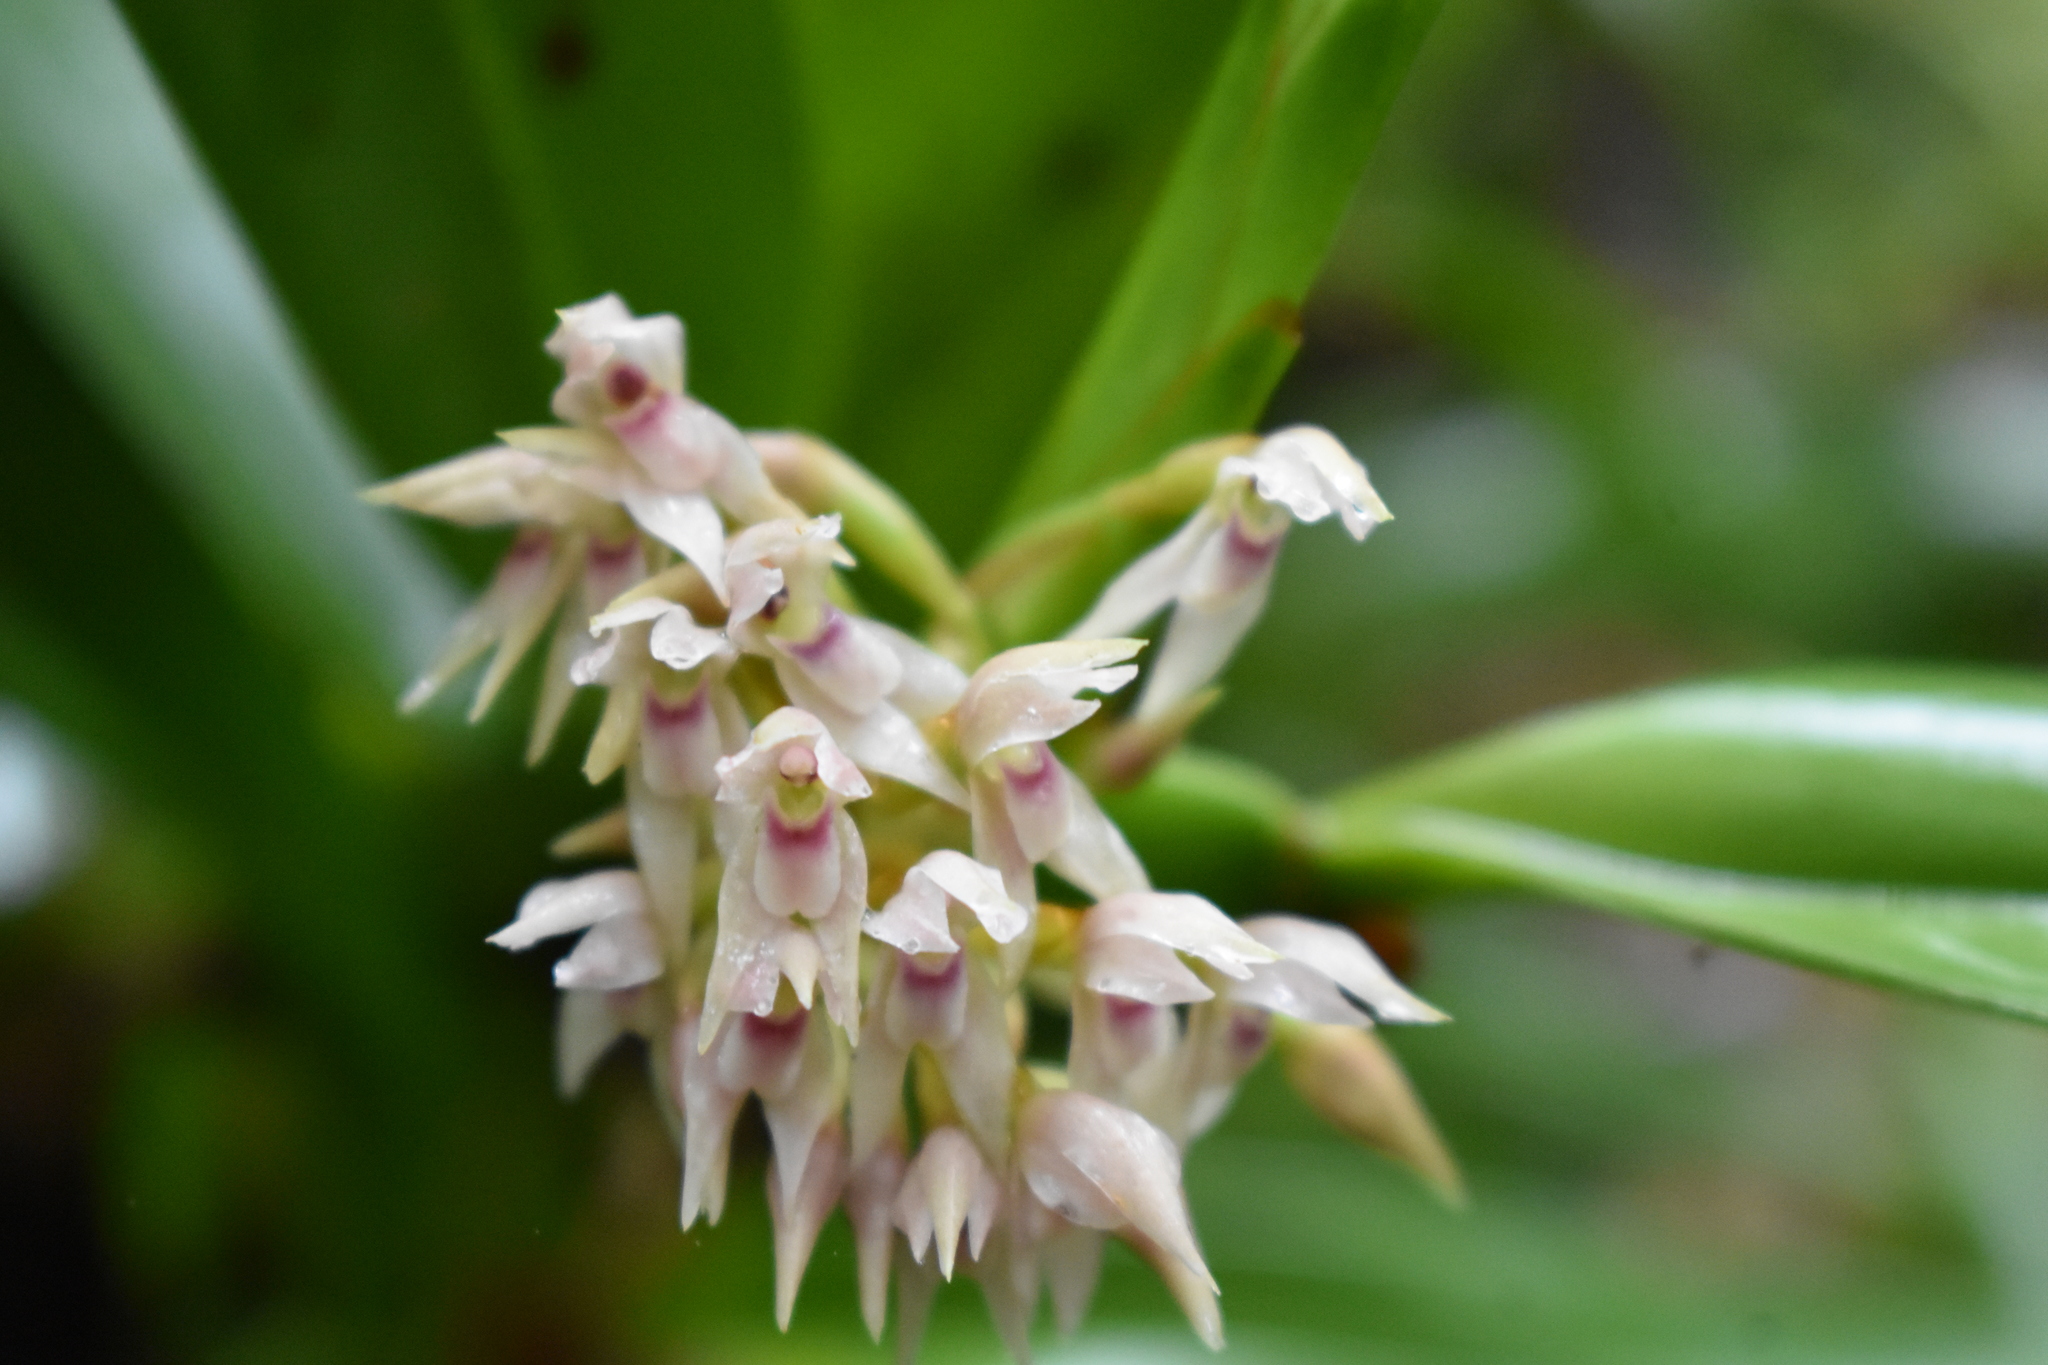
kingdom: Plantae
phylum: Tracheophyta
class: Liliopsida
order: Asparagales
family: Orchidaceae
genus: Maxillaria
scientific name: Maxillaria densa
